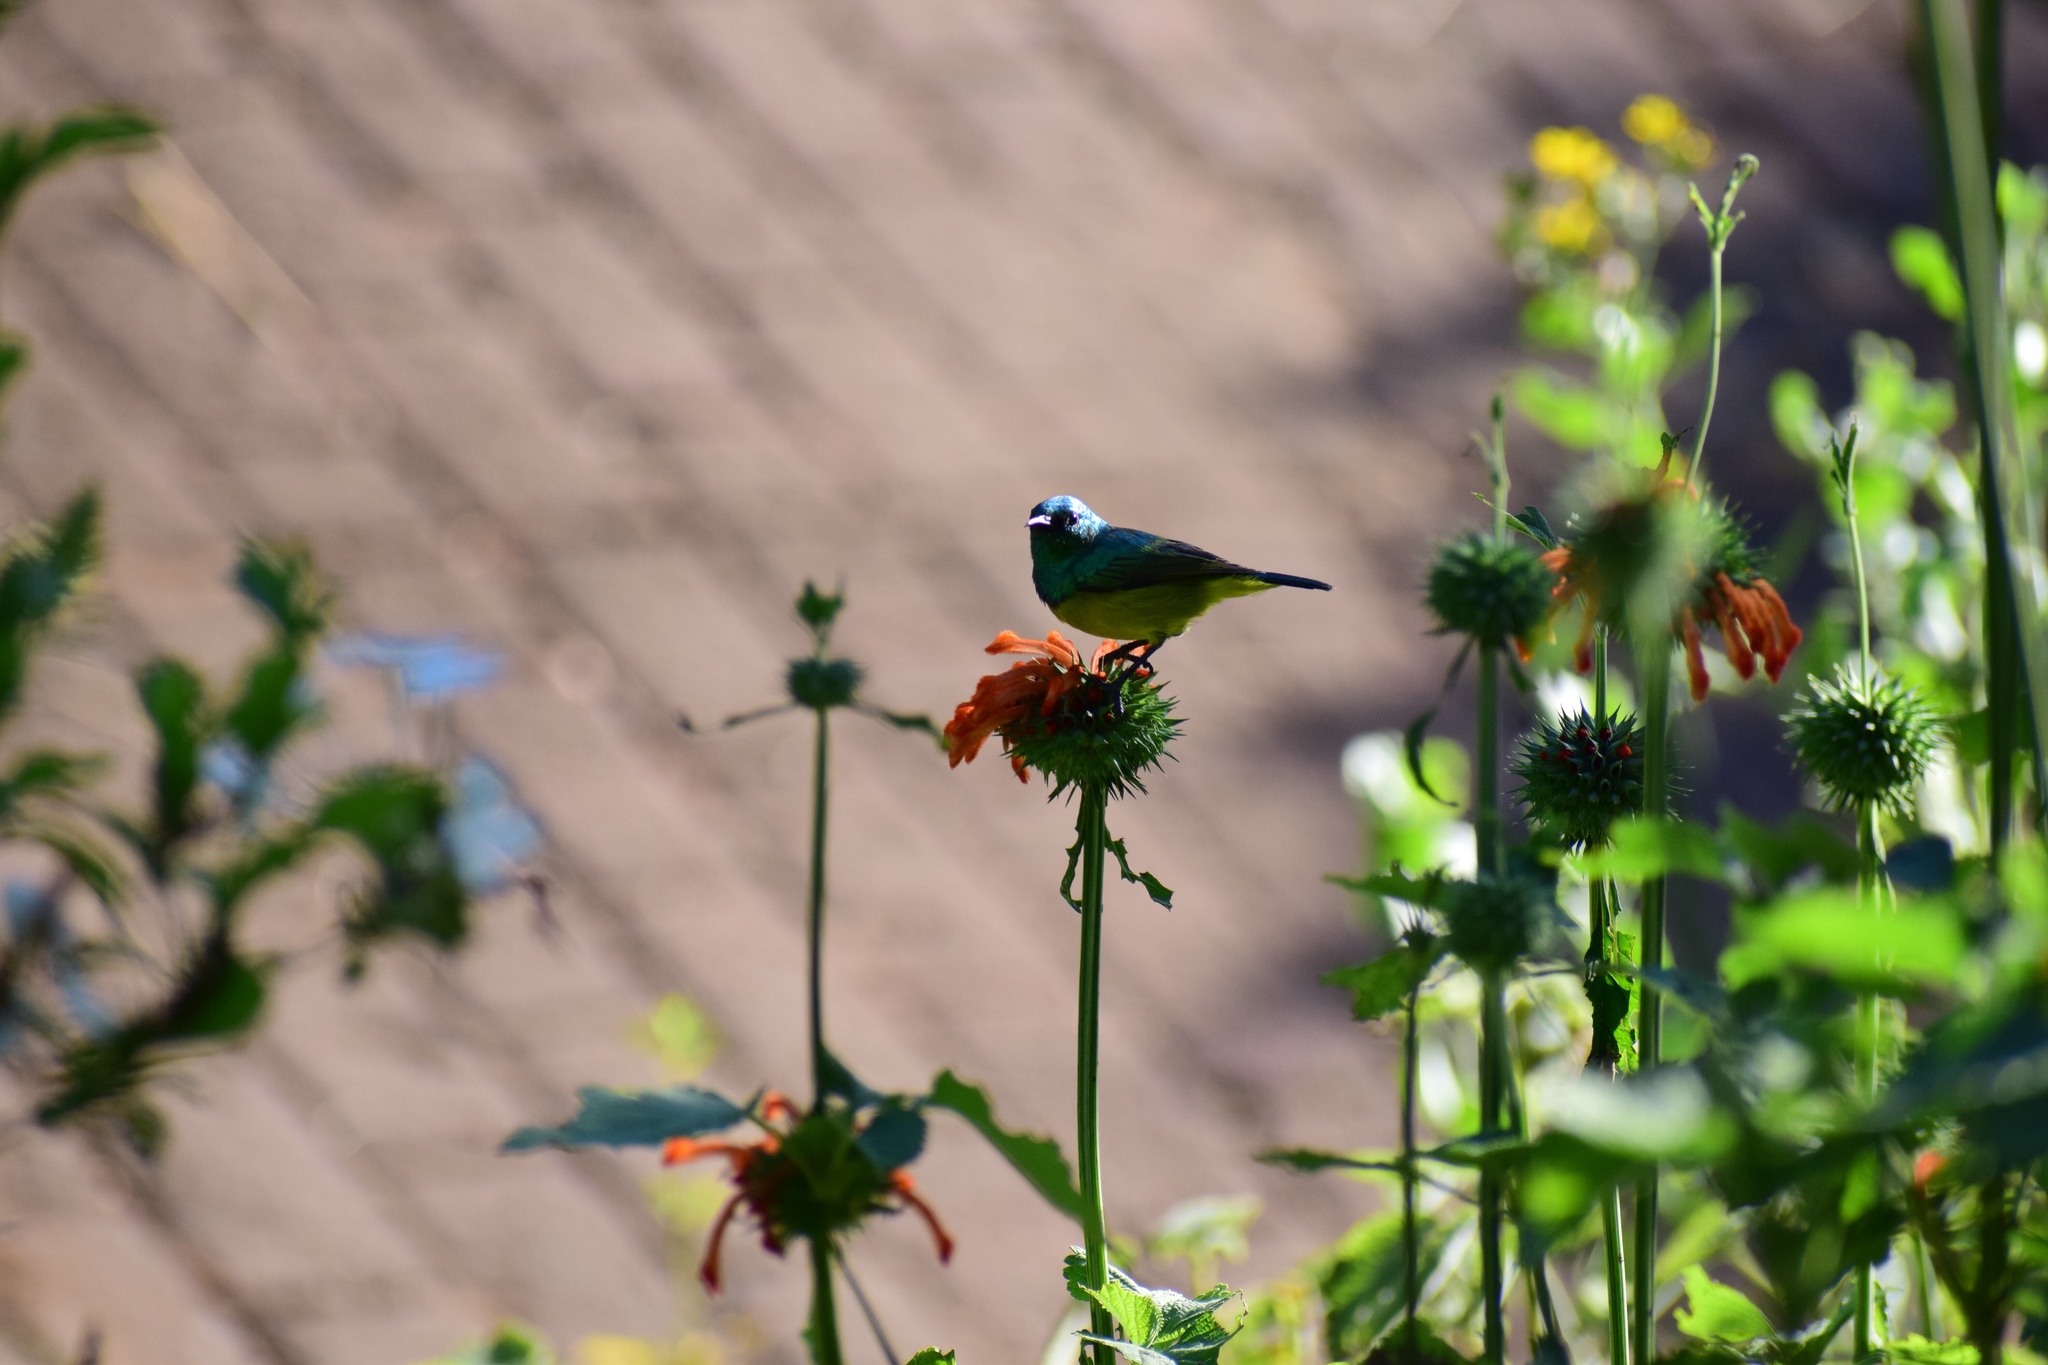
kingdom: Animalia
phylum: Chordata
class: Aves
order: Passeriformes
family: Nectariniidae
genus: Hedydipna
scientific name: Hedydipna collaris
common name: Collared sunbird
